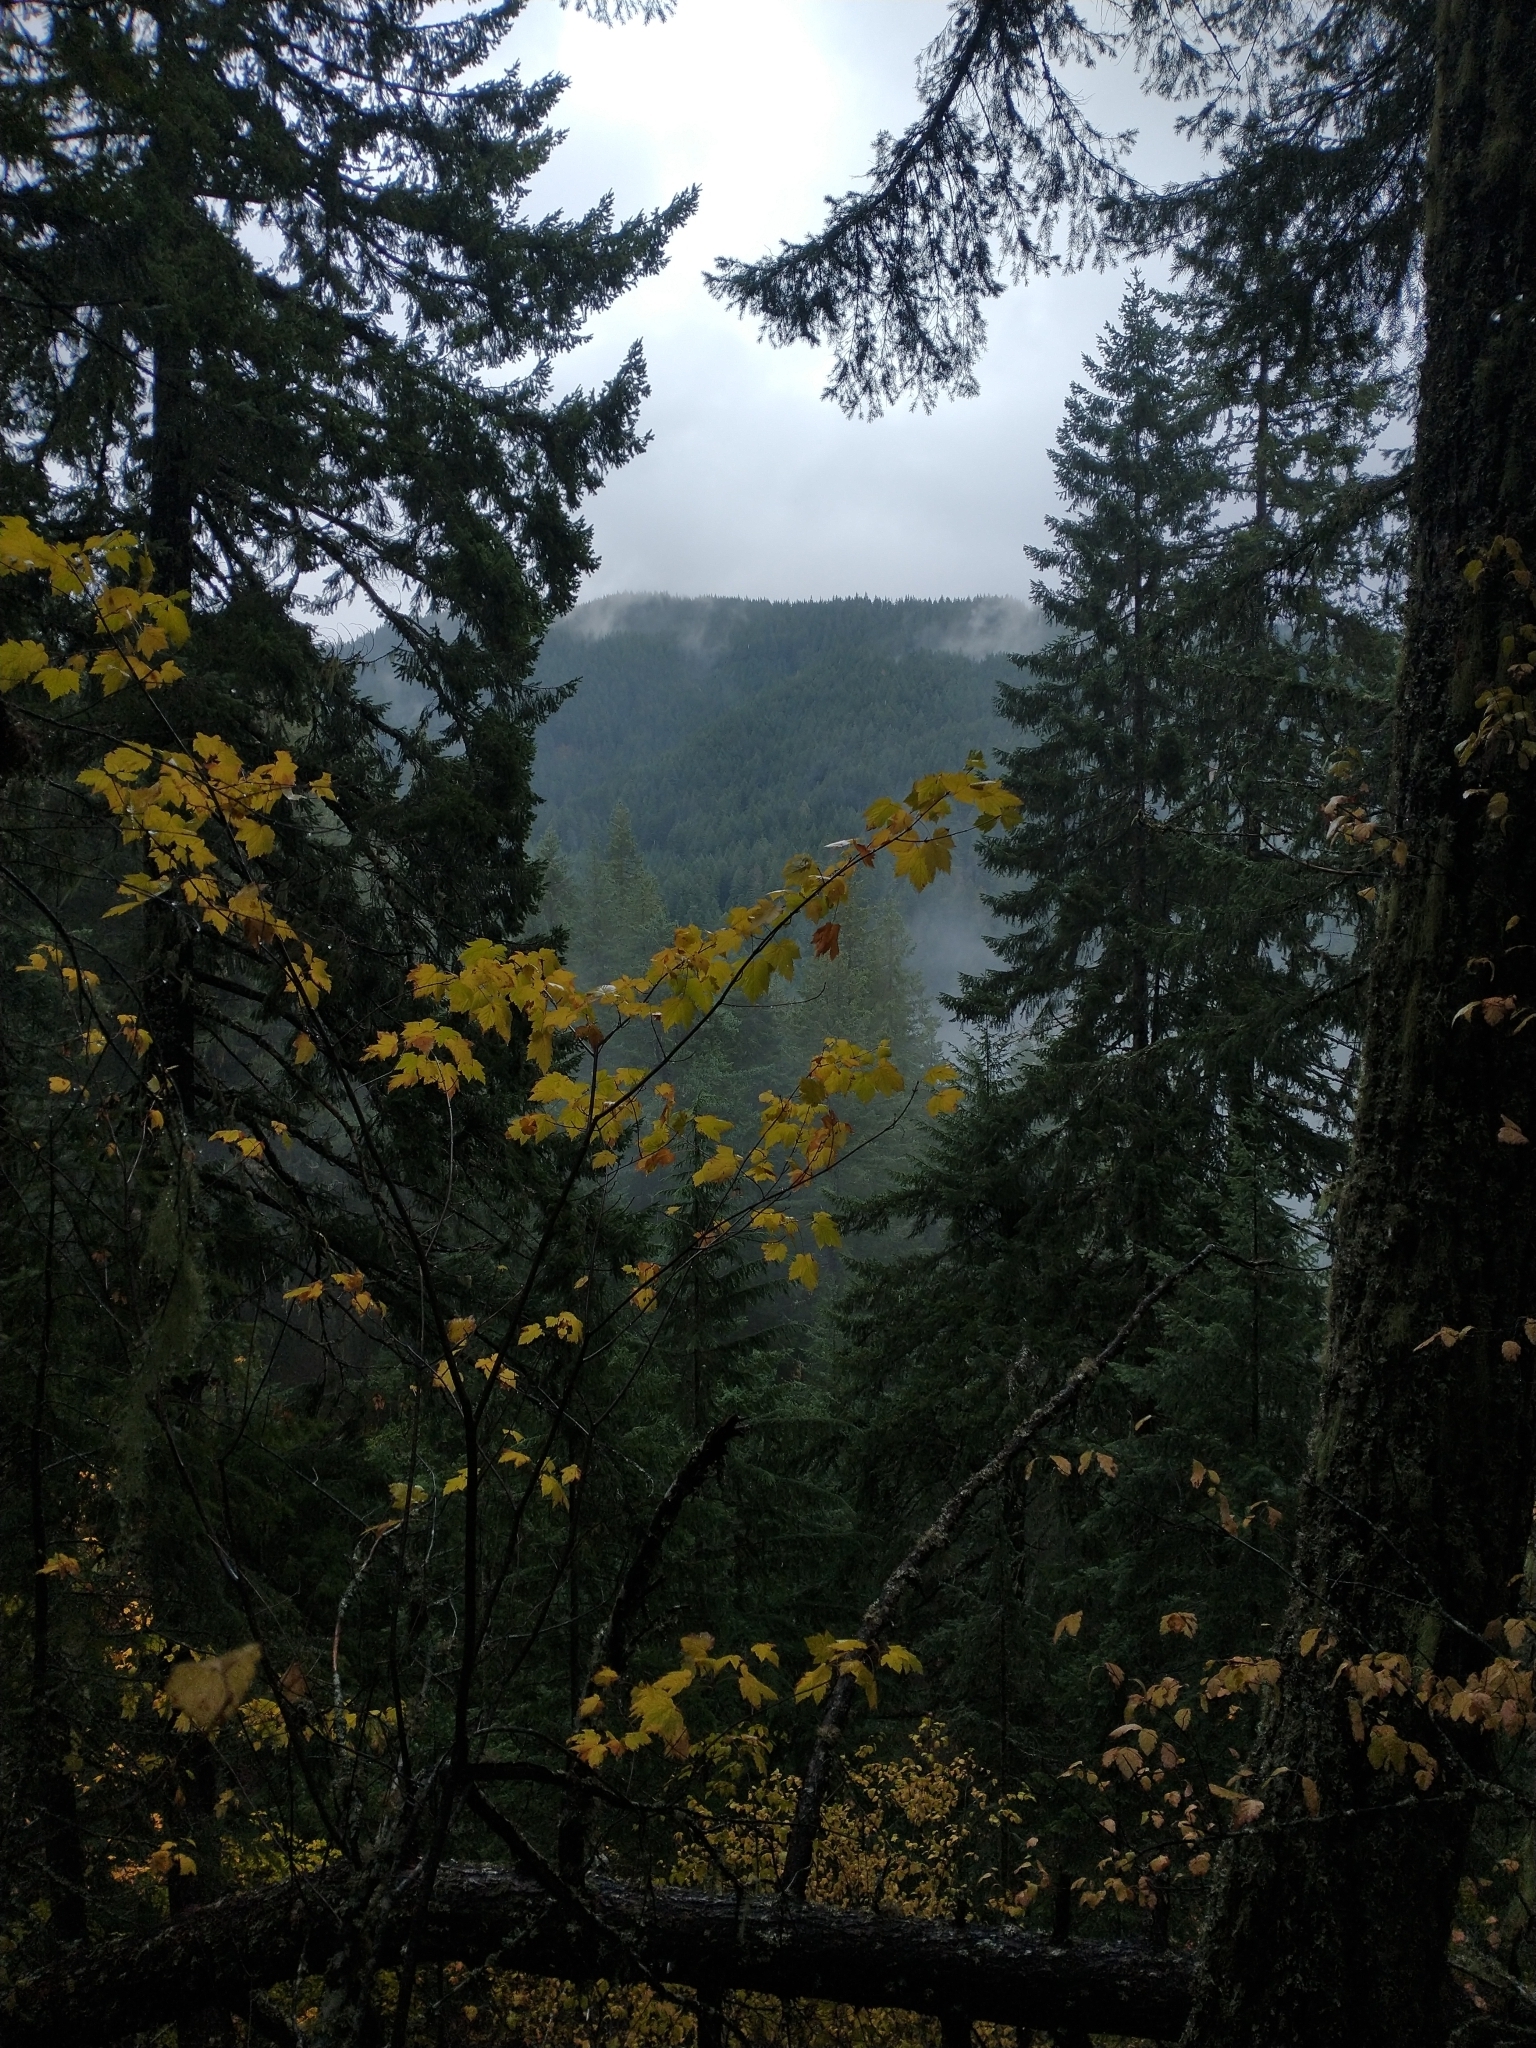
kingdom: Plantae
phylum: Tracheophyta
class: Pinopsida
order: Pinales
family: Pinaceae
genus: Pseudotsuga
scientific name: Pseudotsuga menziesii
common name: Douglas fir
